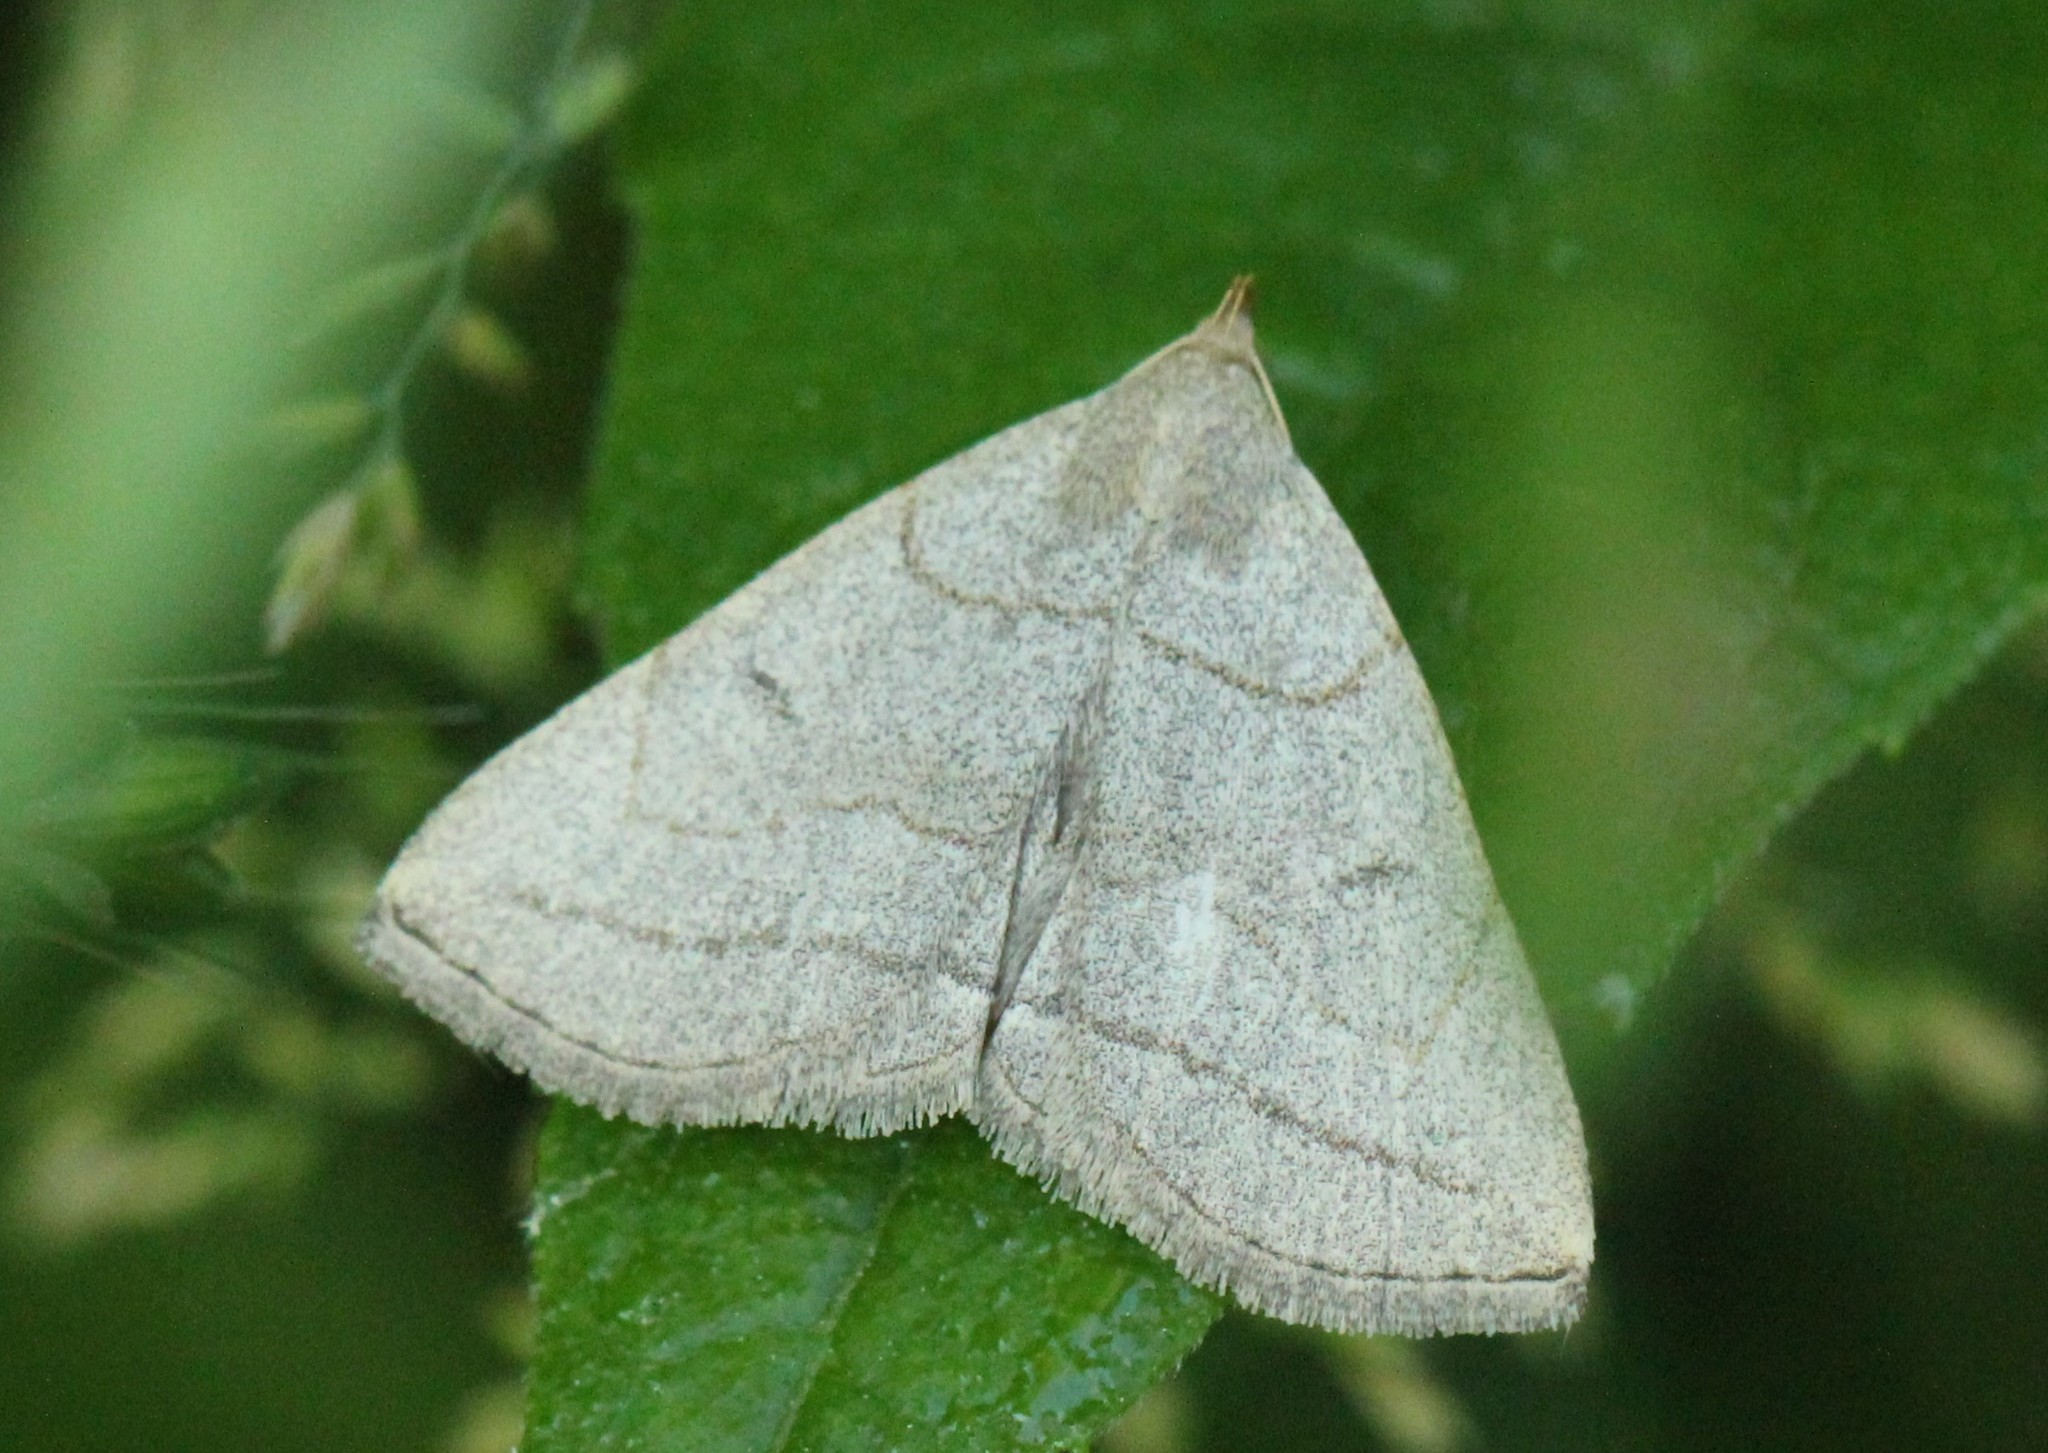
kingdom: Animalia
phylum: Arthropoda
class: Insecta
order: Lepidoptera
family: Erebidae
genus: Zanclognatha
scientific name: Zanclognatha pedipilalis
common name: Grayish fan-foot
